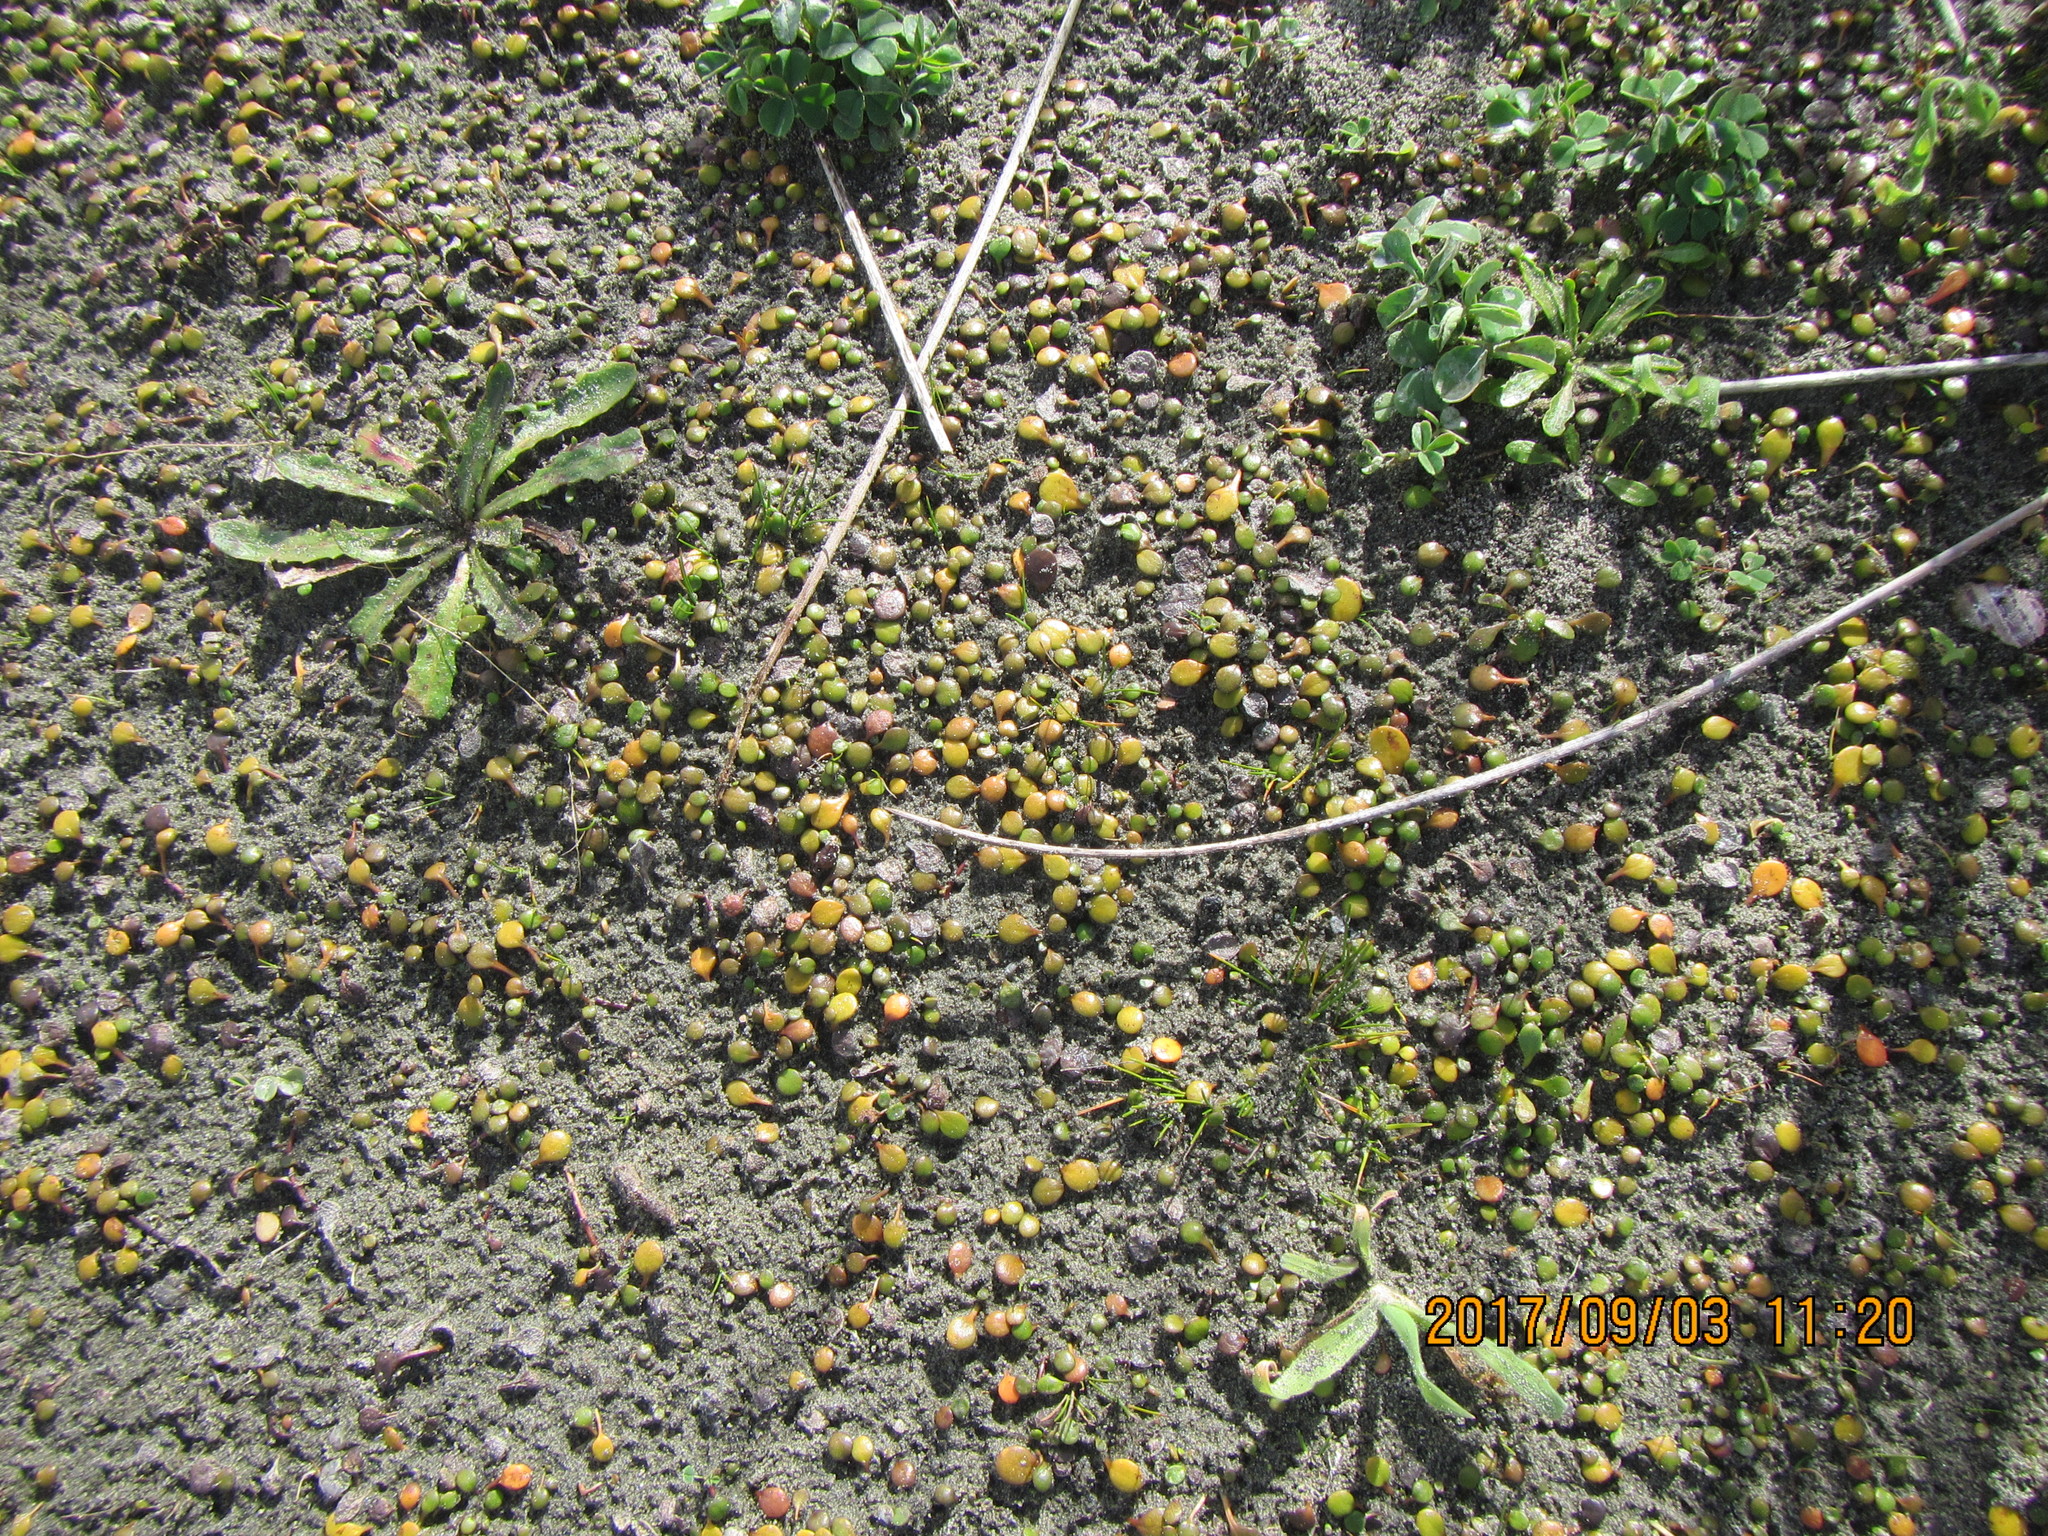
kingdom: Plantae
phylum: Tracheophyta
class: Magnoliopsida
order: Asterales
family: Goodeniaceae
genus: Goodenia
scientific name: Goodenia heenanii
